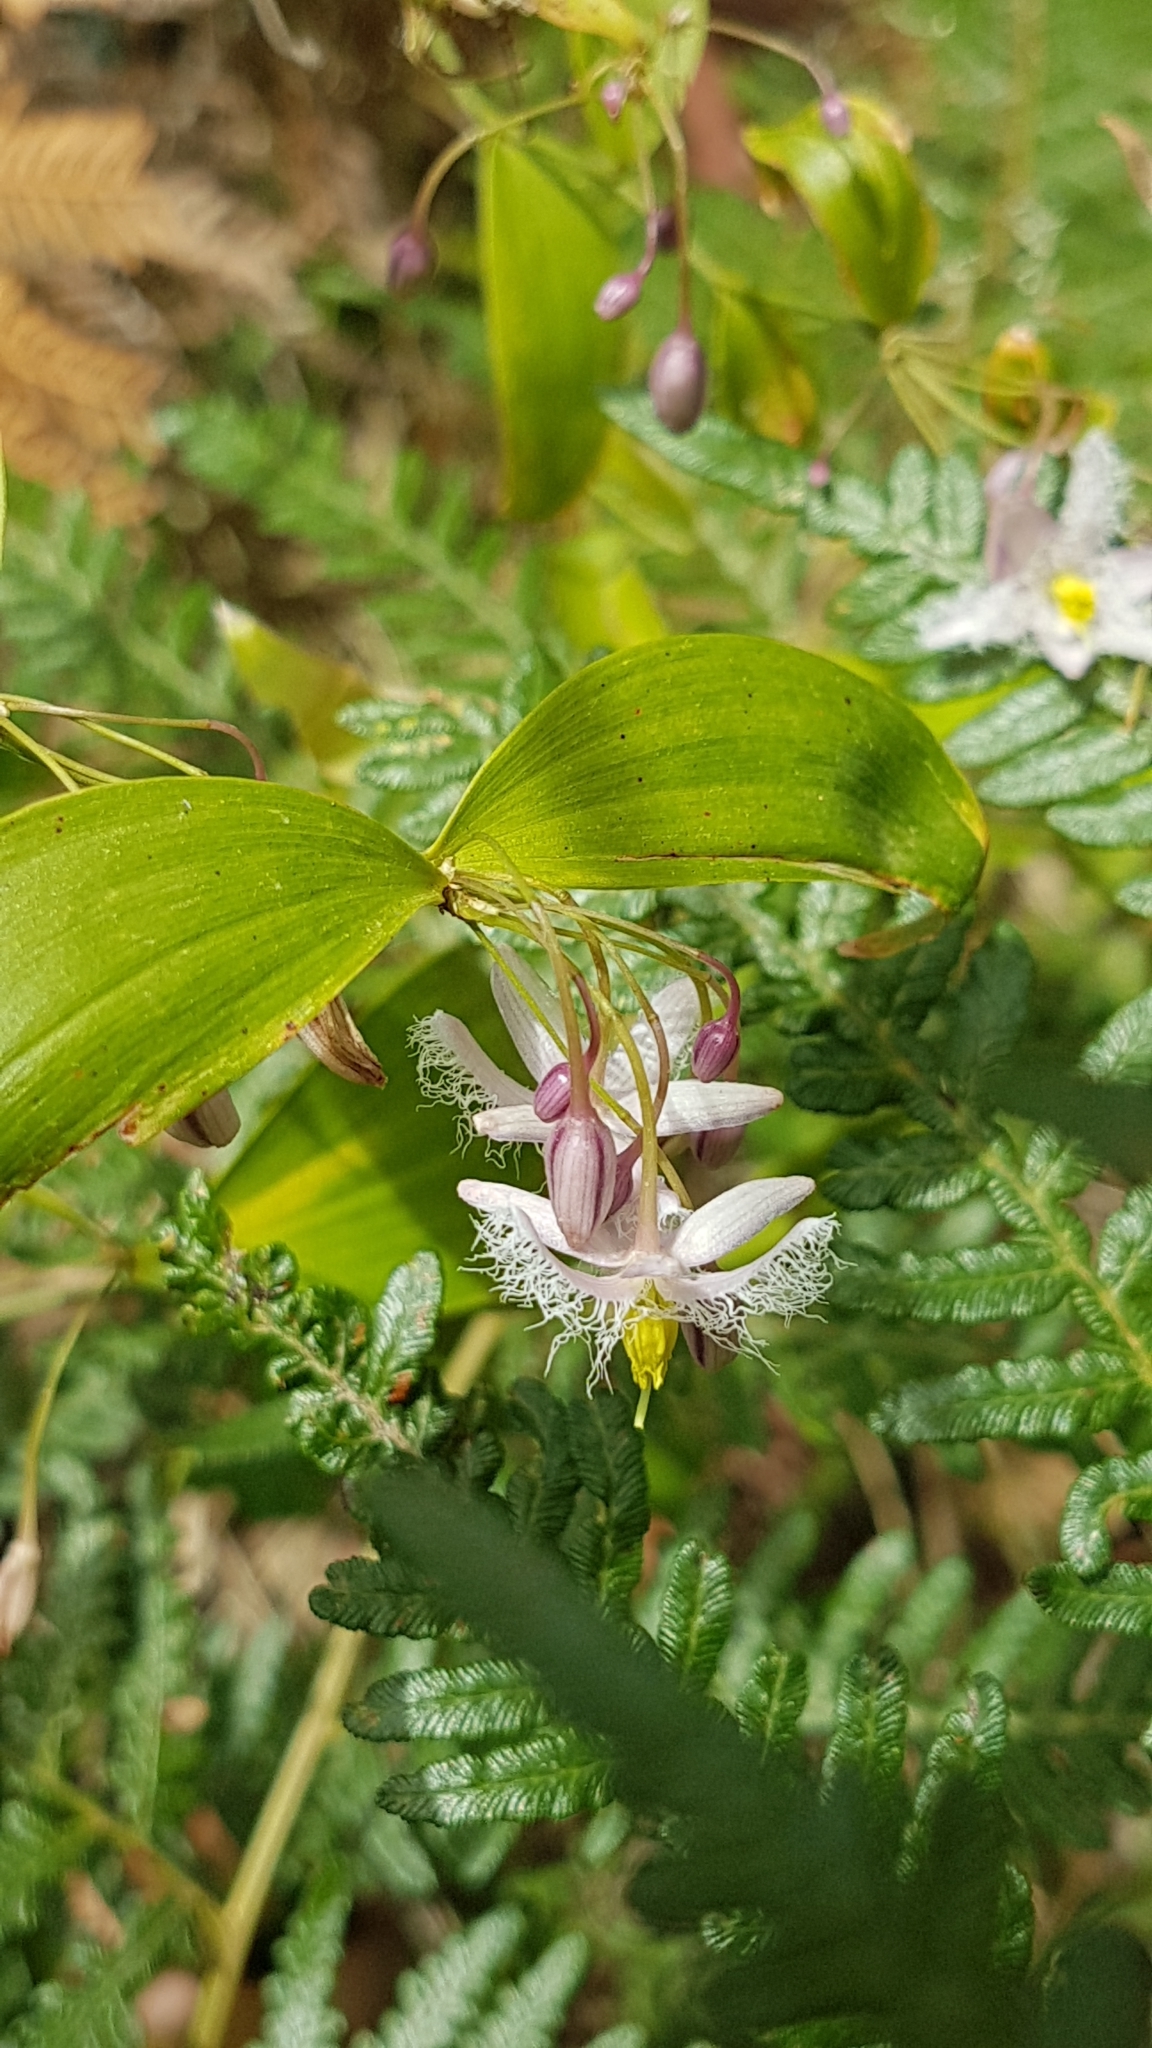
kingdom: Plantae
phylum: Tracheophyta
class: Liliopsida
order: Asparagales
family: Asparagaceae
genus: Eustrephus
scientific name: Eustrephus latifolius
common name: Orangevine
